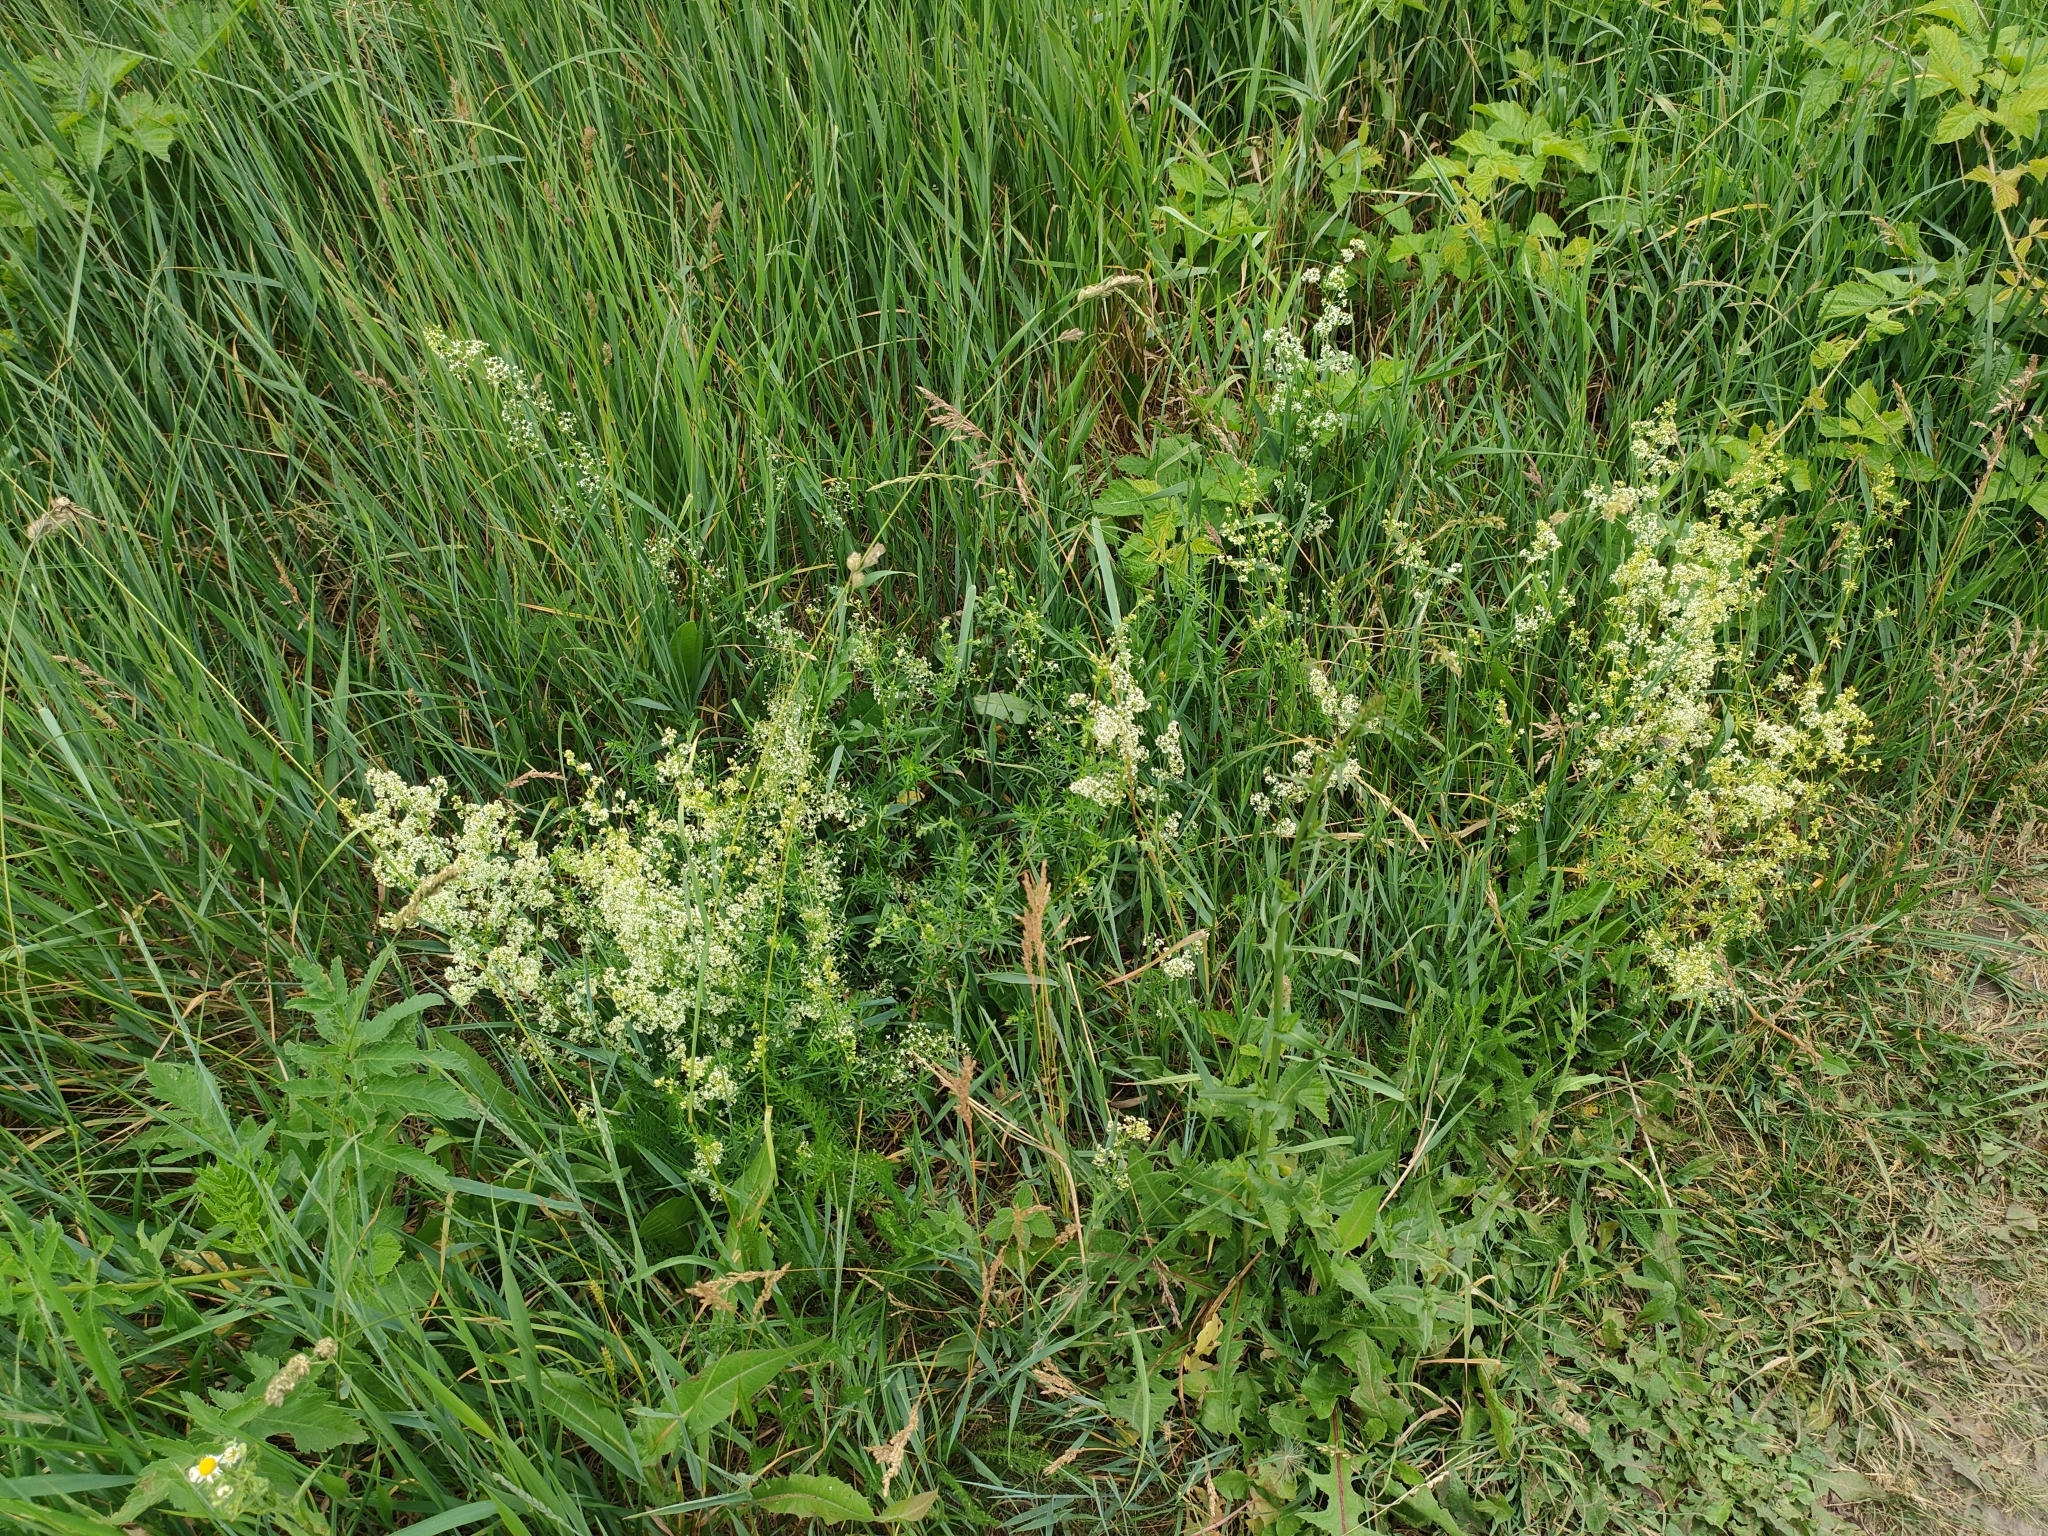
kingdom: Plantae
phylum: Tracheophyta
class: Magnoliopsida
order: Gentianales
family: Rubiaceae
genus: Galium
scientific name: Galium mollugo
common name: Hedge bedstraw
